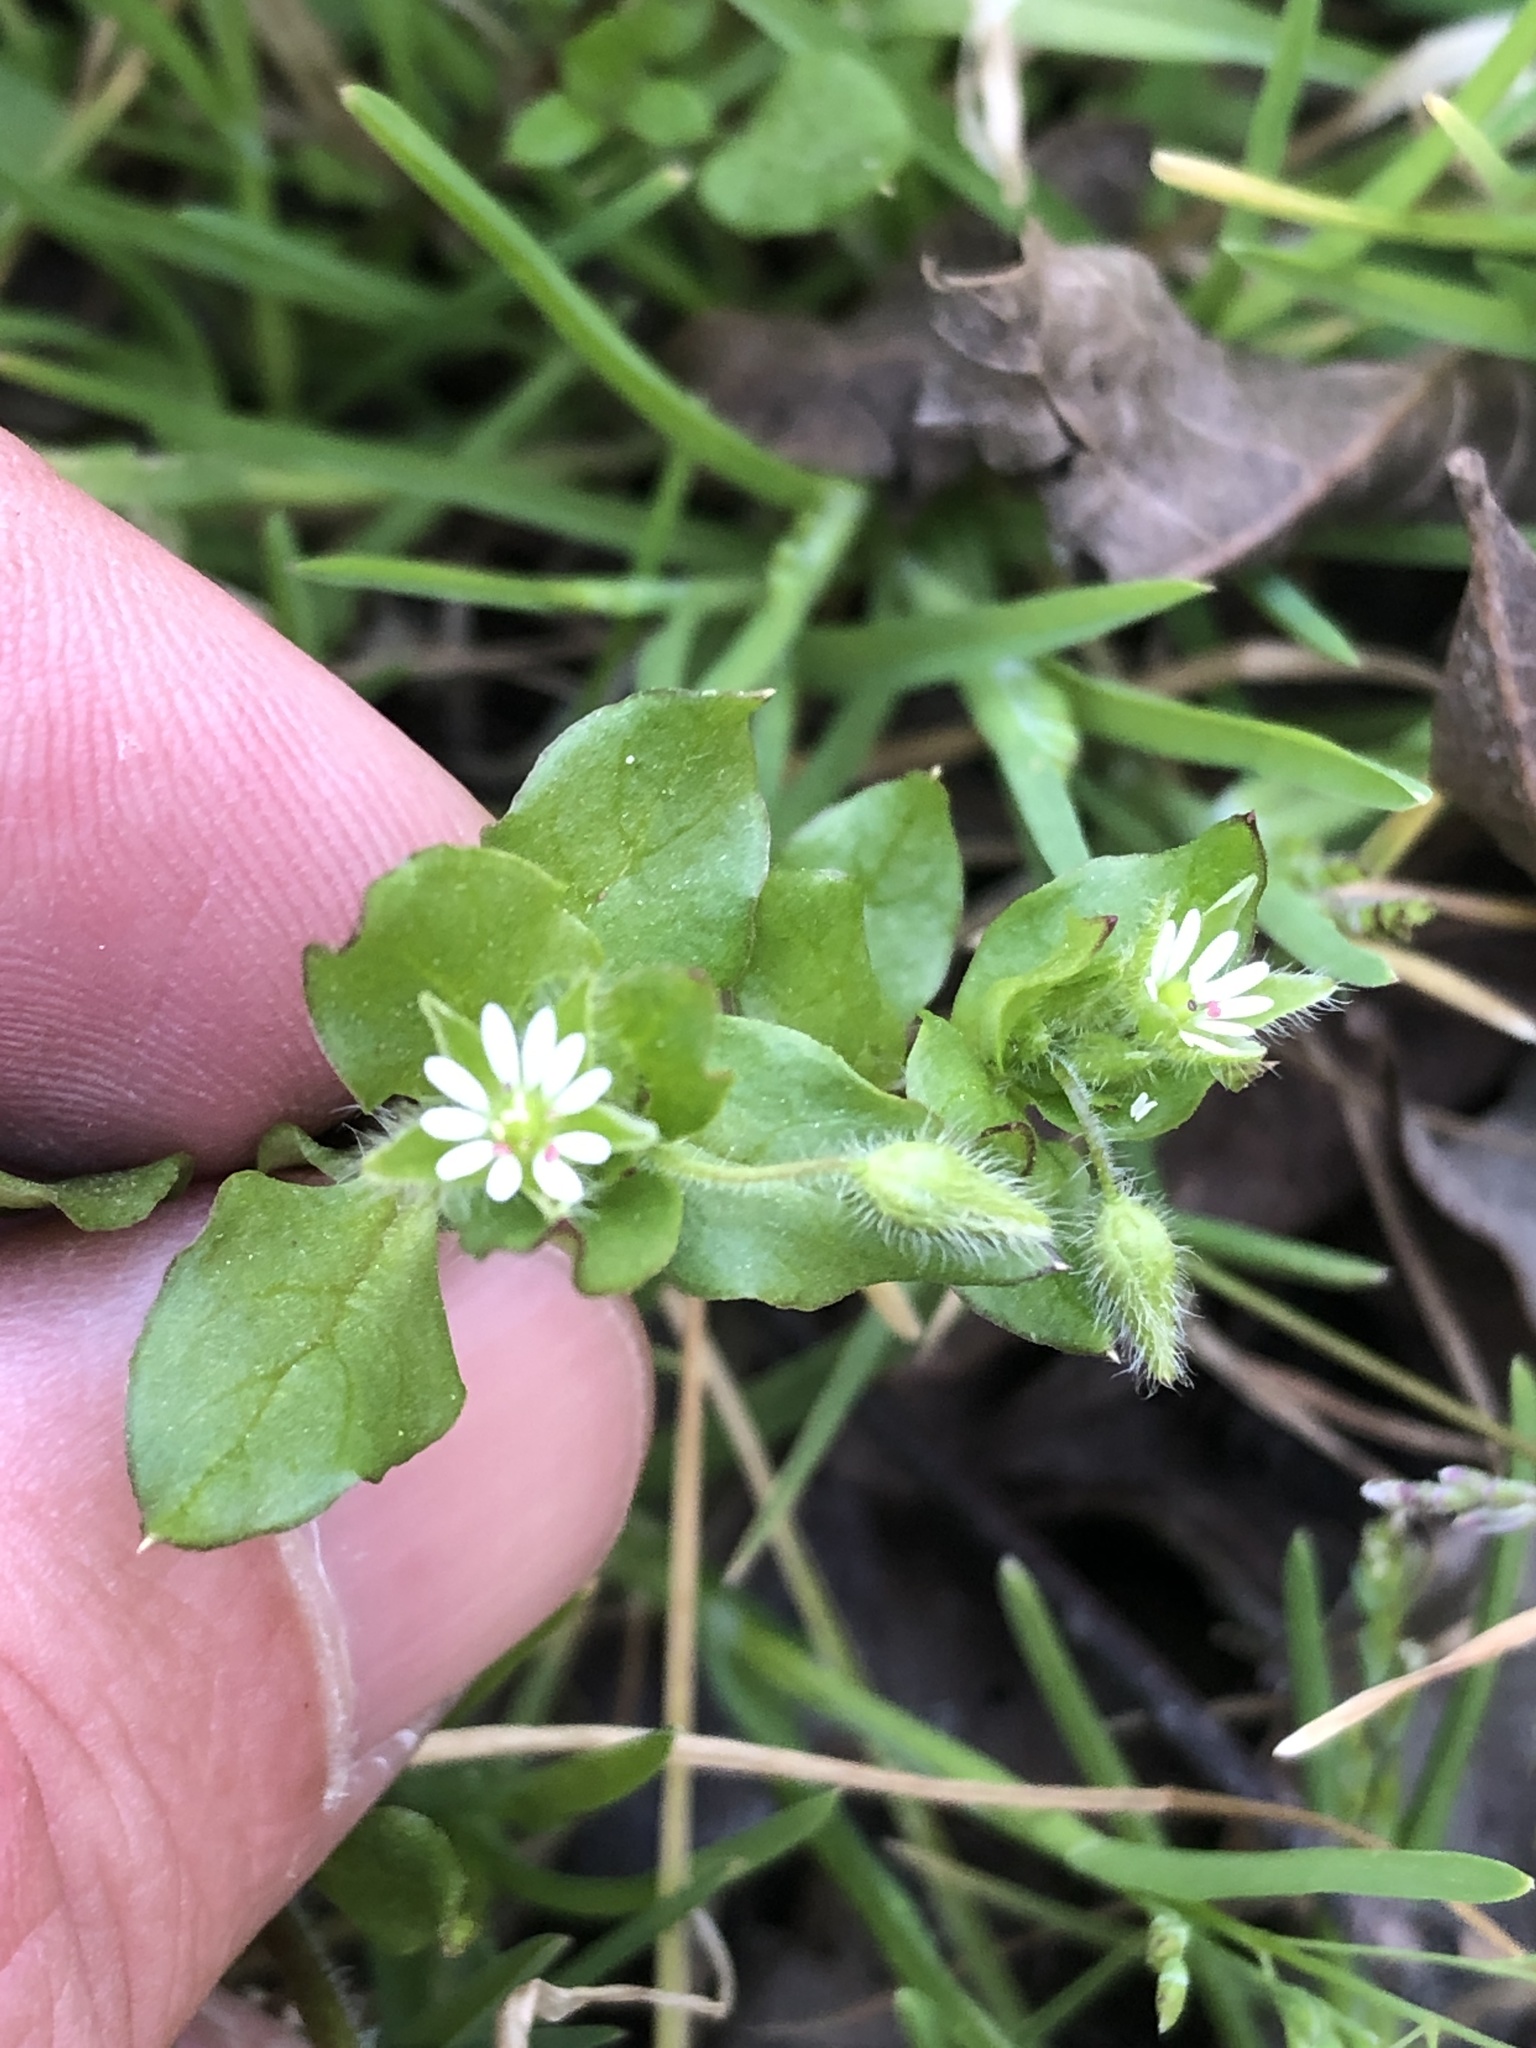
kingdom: Plantae
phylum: Tracheophyta
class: Magnoliopsida
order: Caryophyllales
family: Caryophyllaceae
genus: Stellaria
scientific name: Stellaria media
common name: Common chickweed
